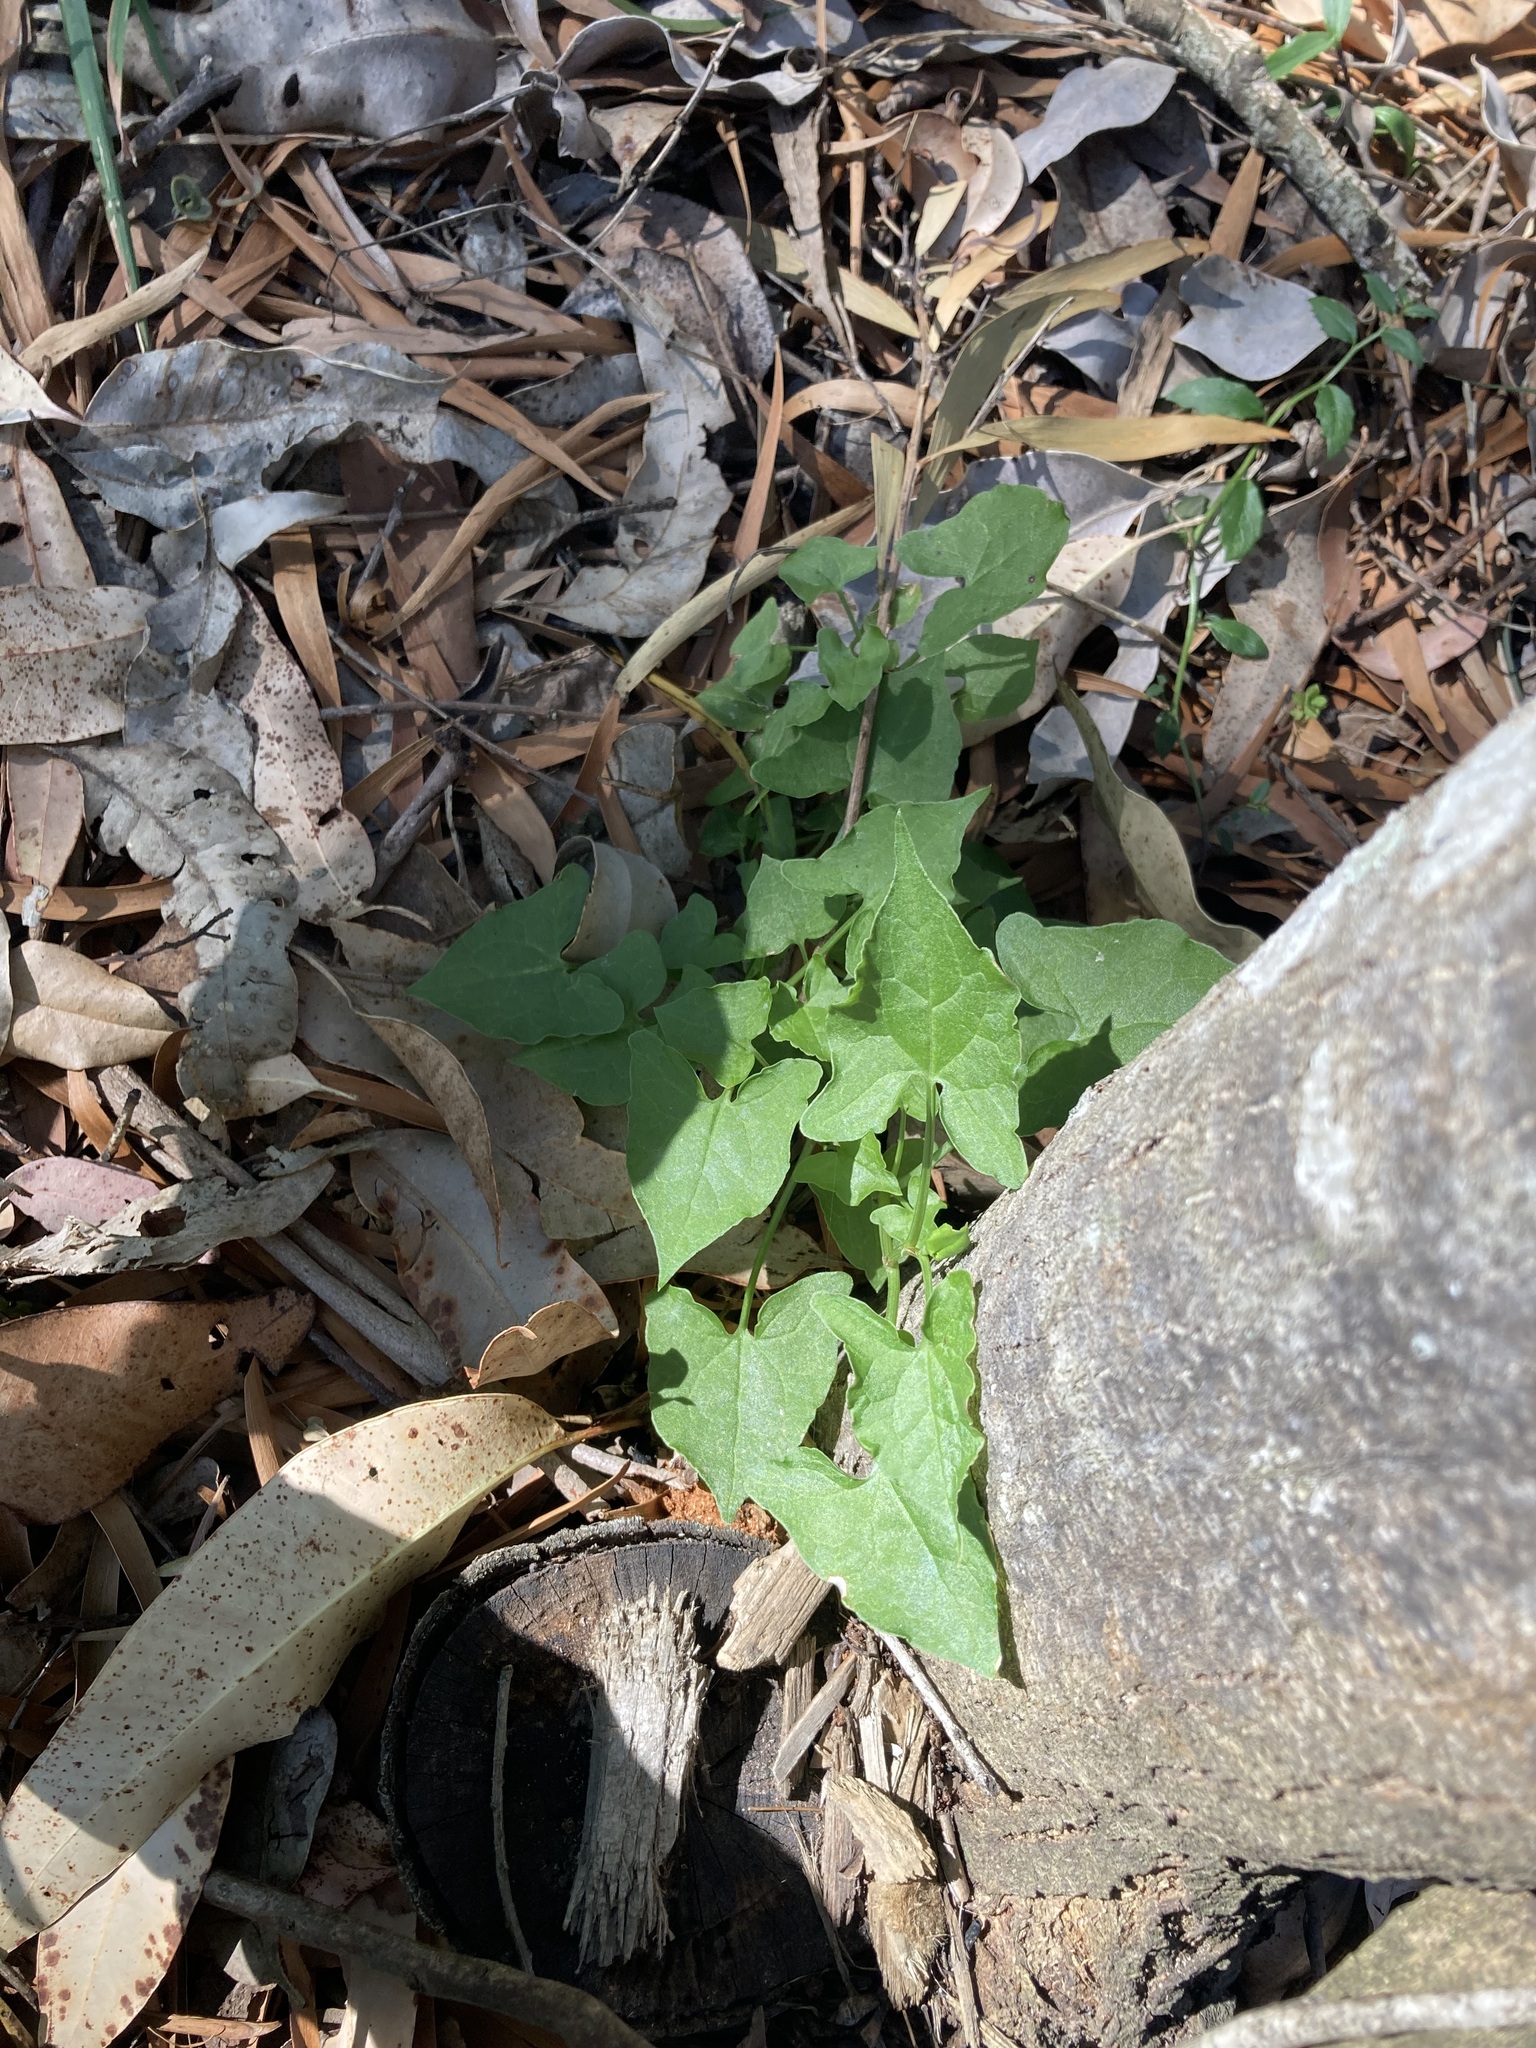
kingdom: Plantae
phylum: Tracheophyta
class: Magnoliopsida
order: Caryophyllales
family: Polygonaceae
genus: Rumex
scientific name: Rumex sagittatus
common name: Climbing dock
